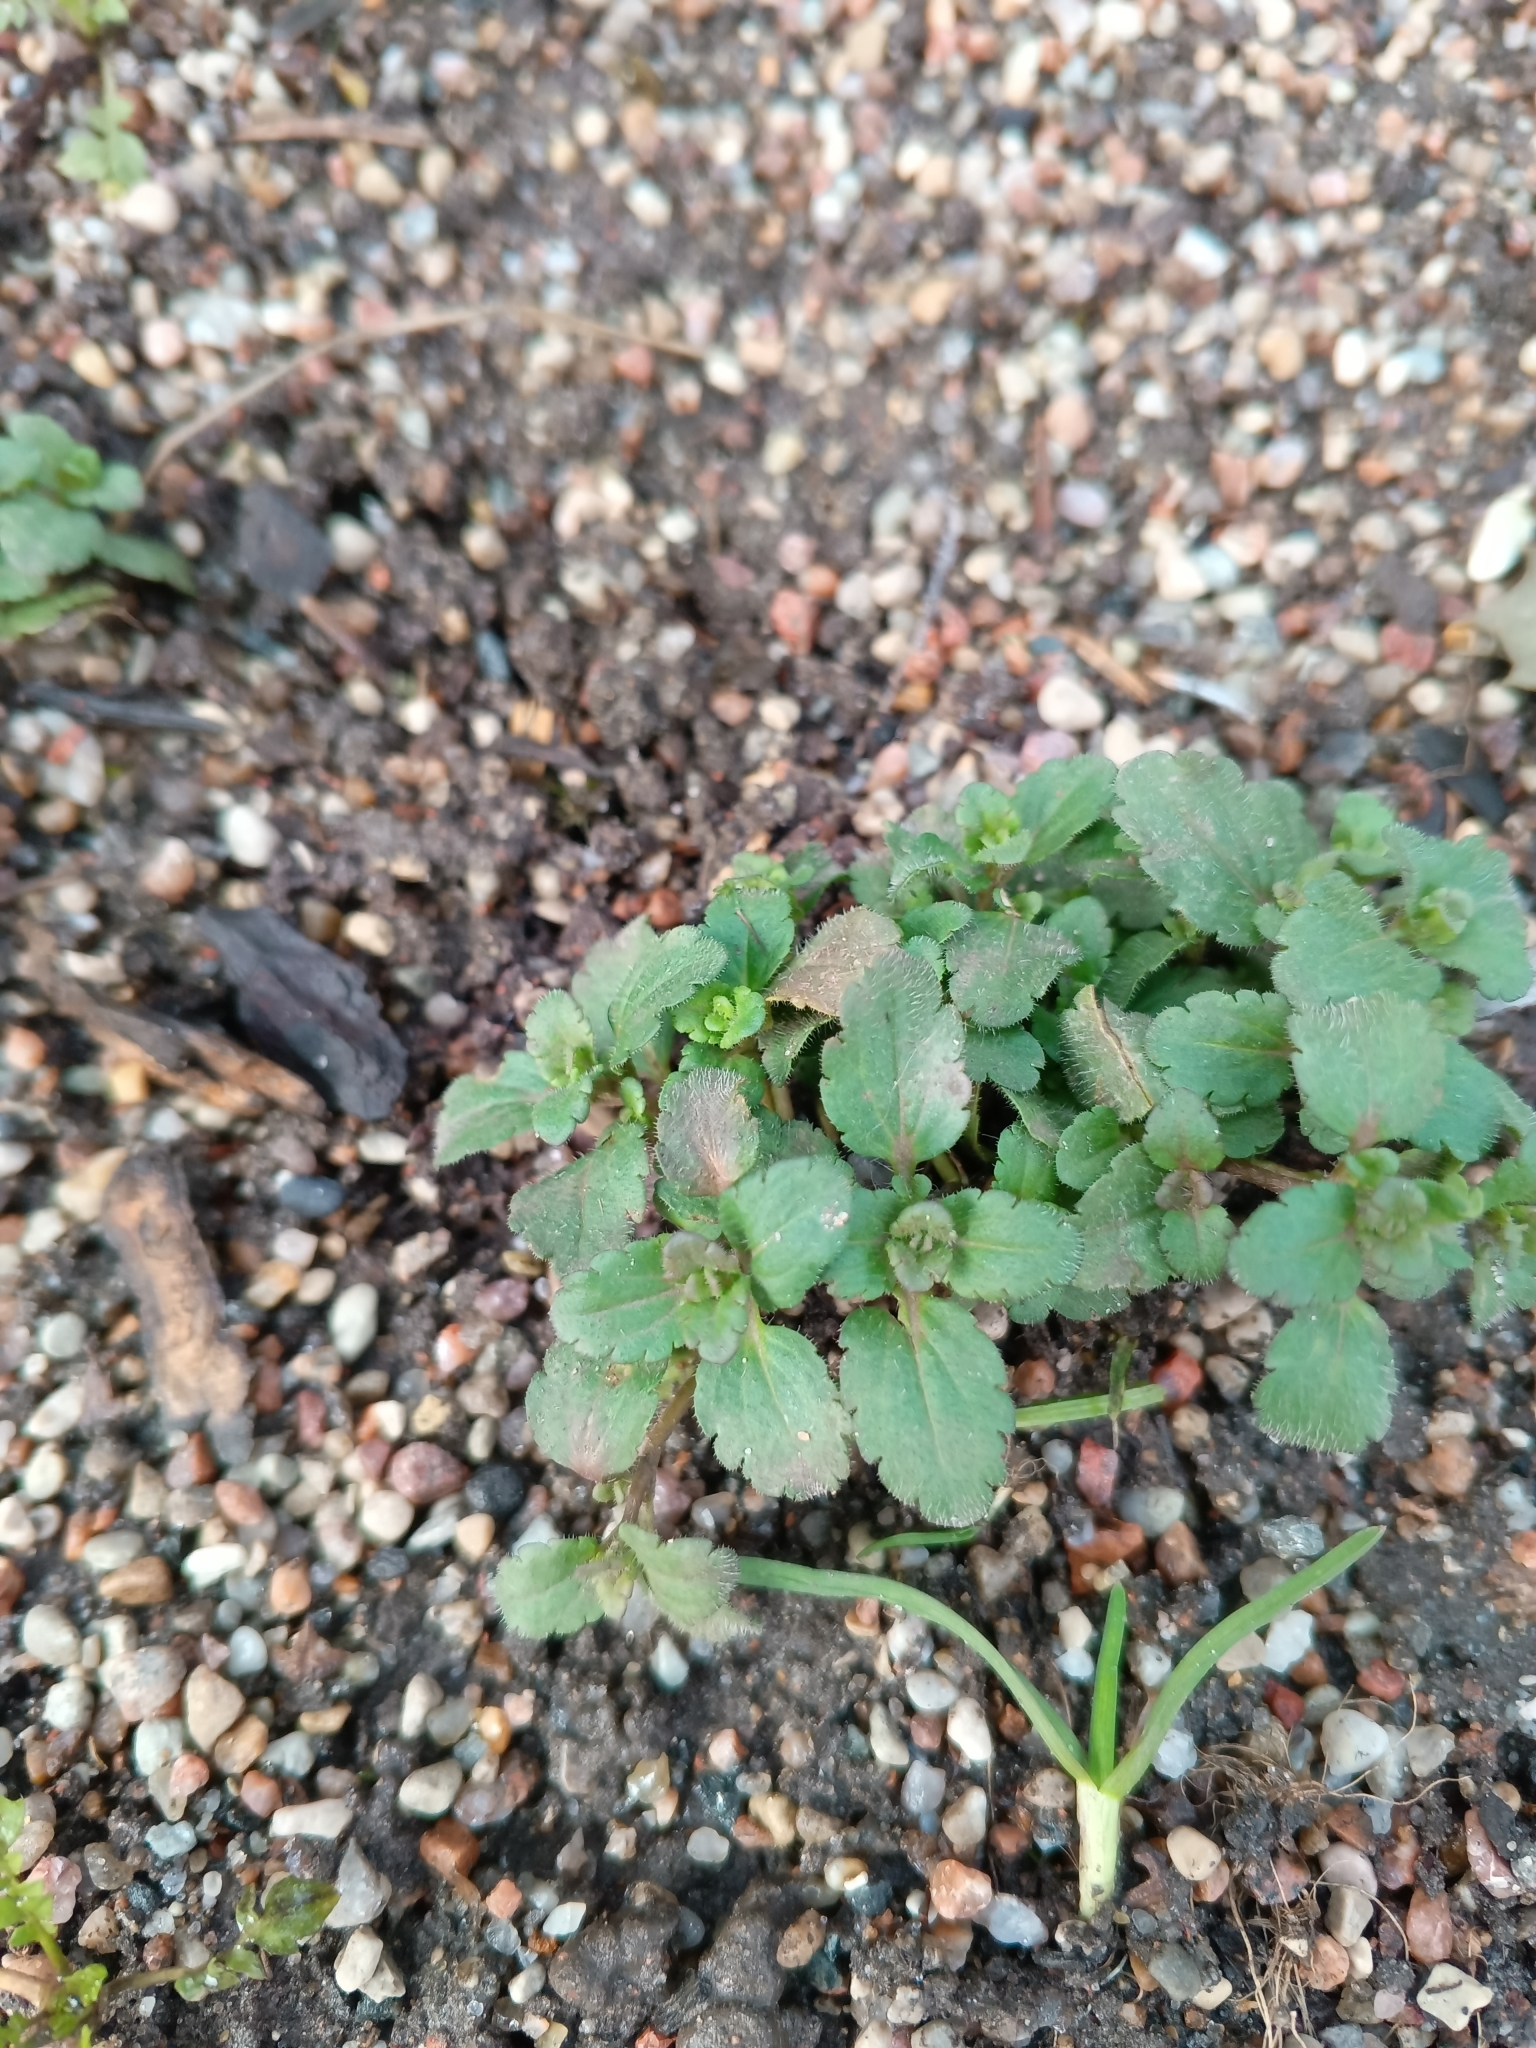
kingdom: Plantae
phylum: Tracheophyta
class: Magnoliopsida
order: Lamiales
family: Plantaginaceae
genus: Veronica
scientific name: Veronica persica
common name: Common field-speedwell
